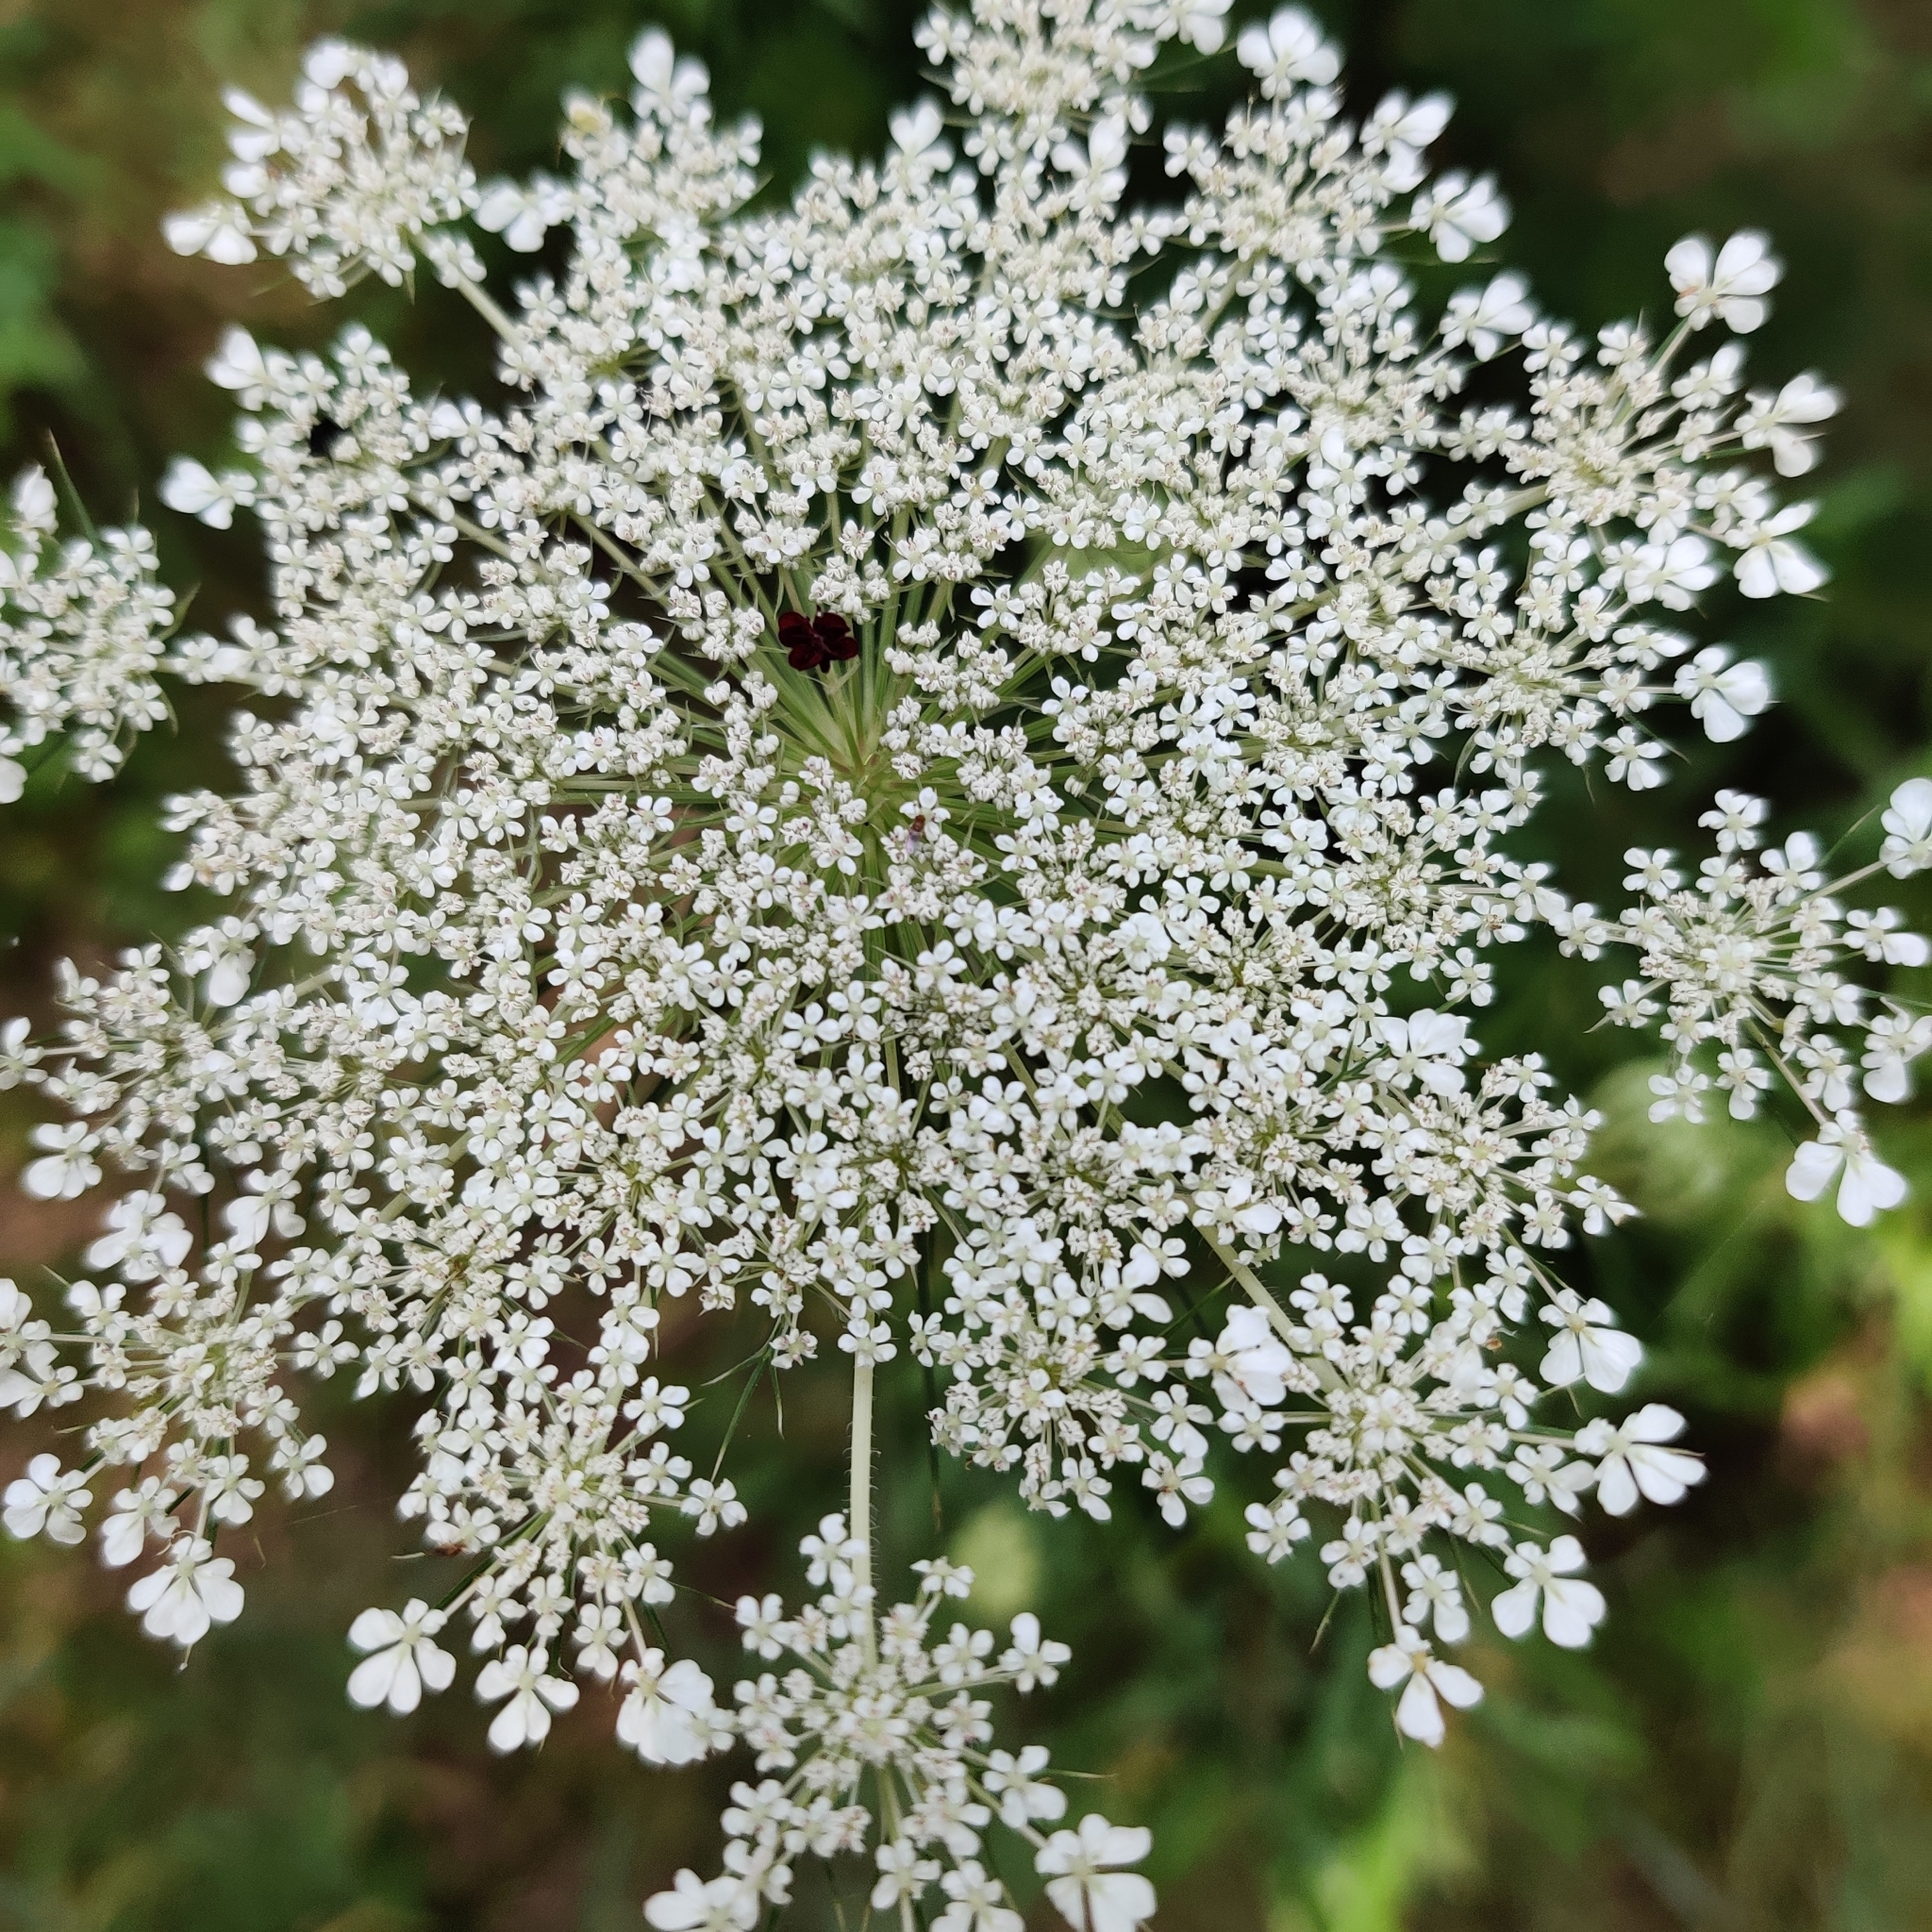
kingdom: Plantae
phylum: Tracheophyta
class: Magnoliopsida
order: Apiales
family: Apiaceae
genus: Daucus
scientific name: Daucus carota
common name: Wild carrot
